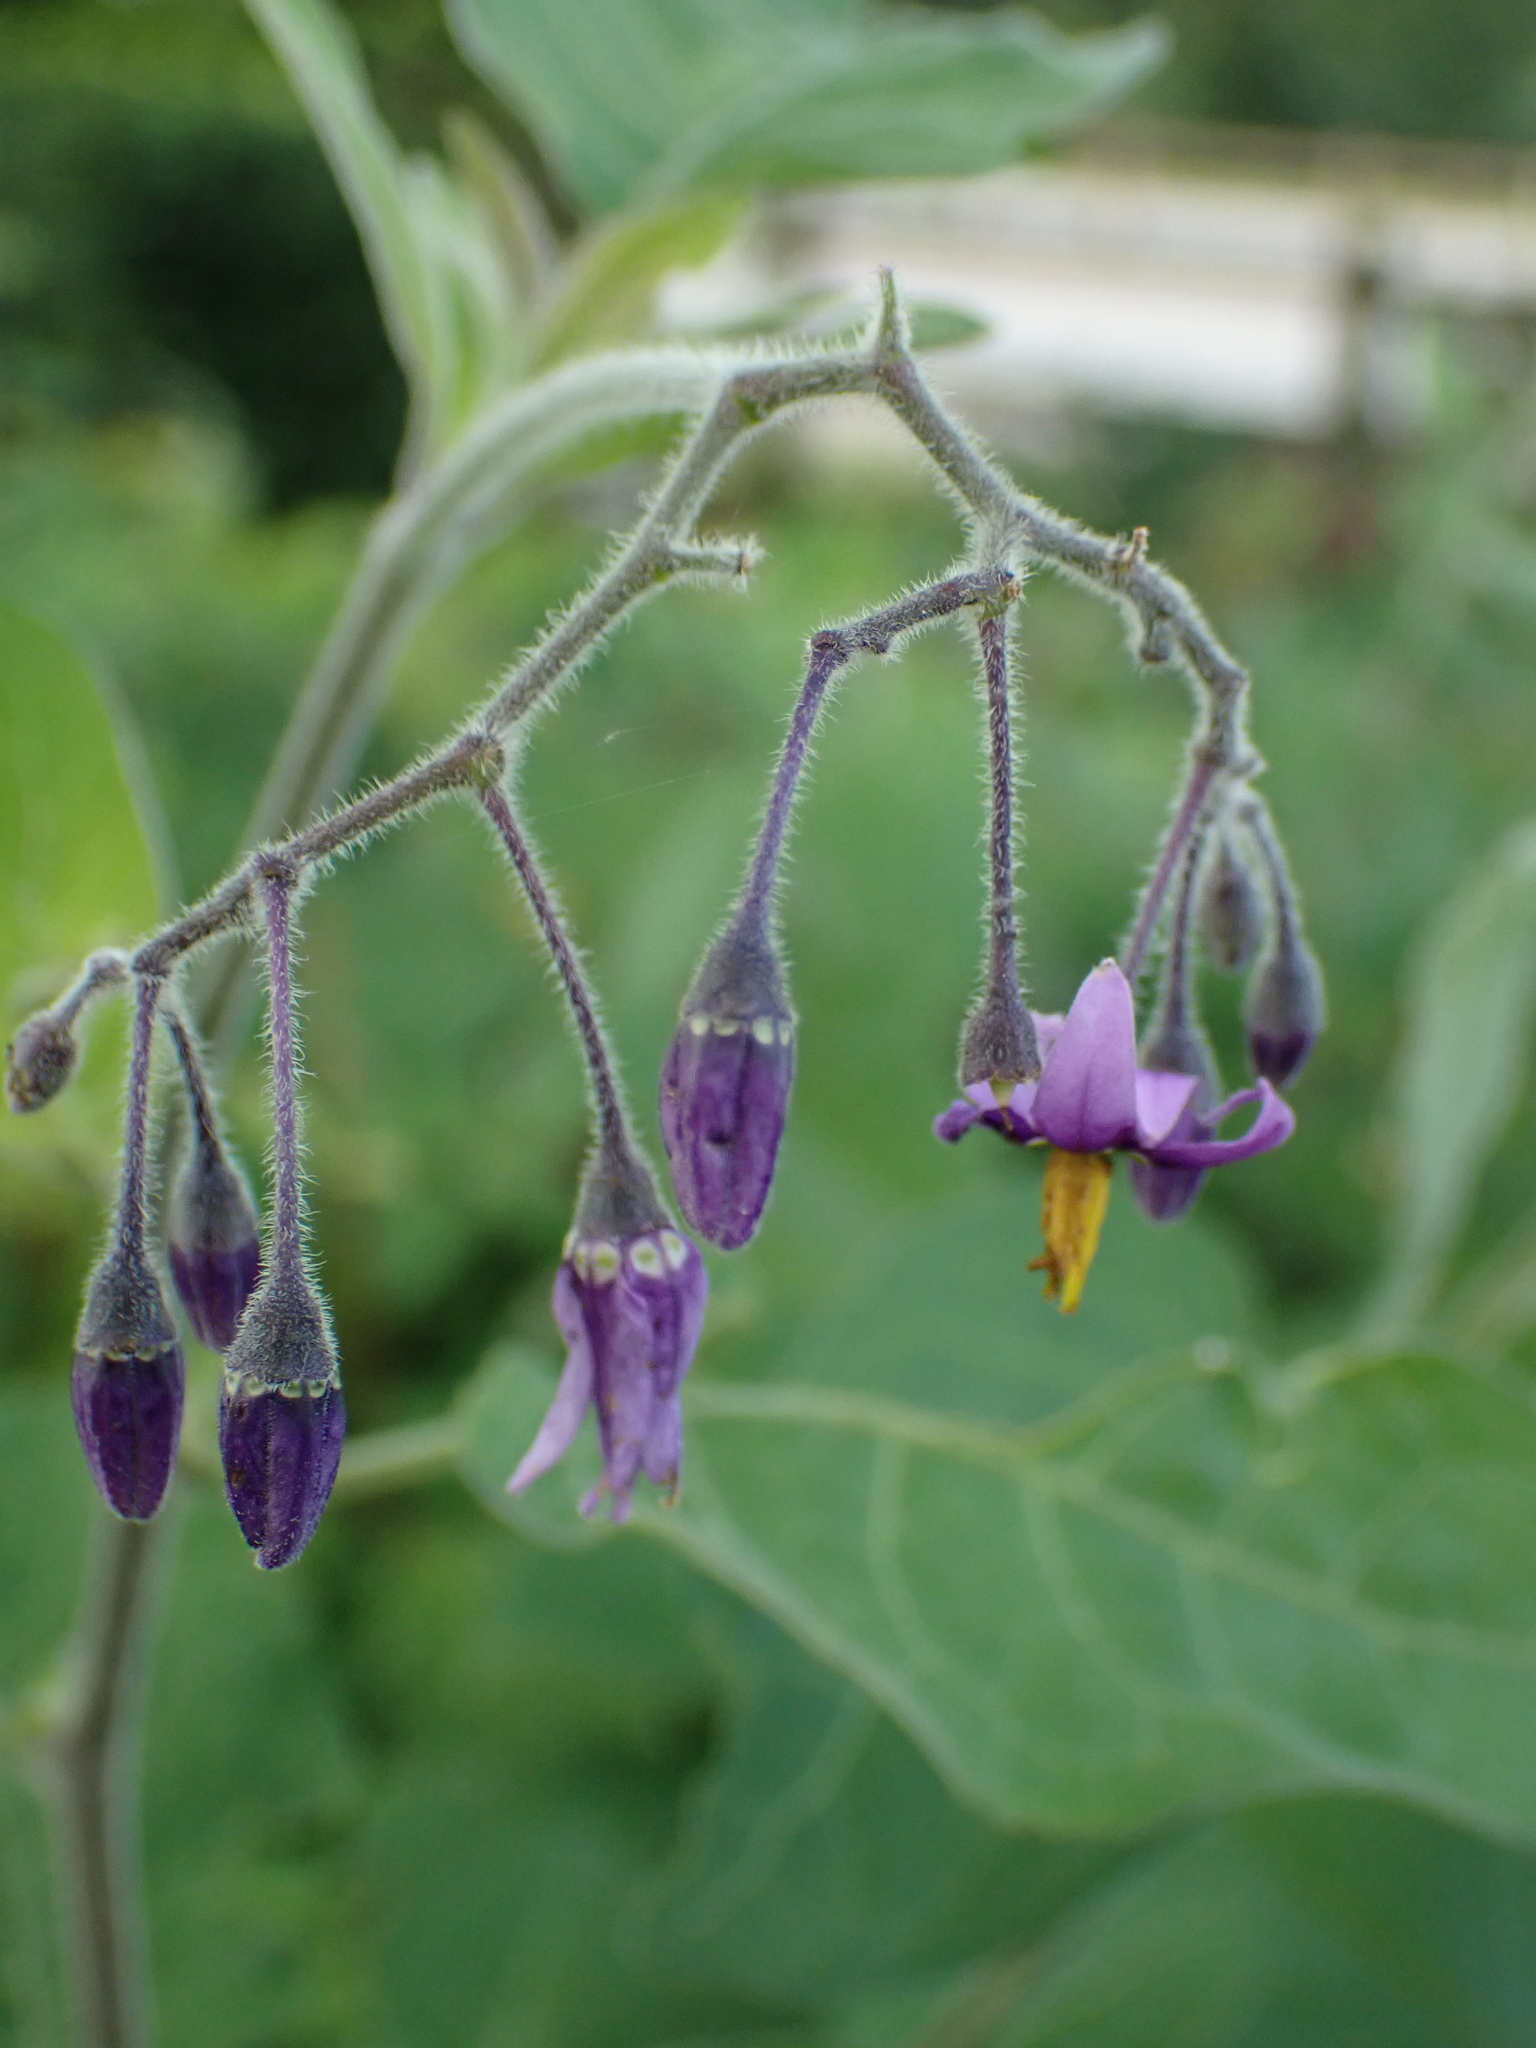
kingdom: Plantae
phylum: Tracheophyta
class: Magnoliopsida
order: Solanales
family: Solanaceae
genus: Solanum
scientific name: Solanum dulcamara
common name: Climbing nightshade
